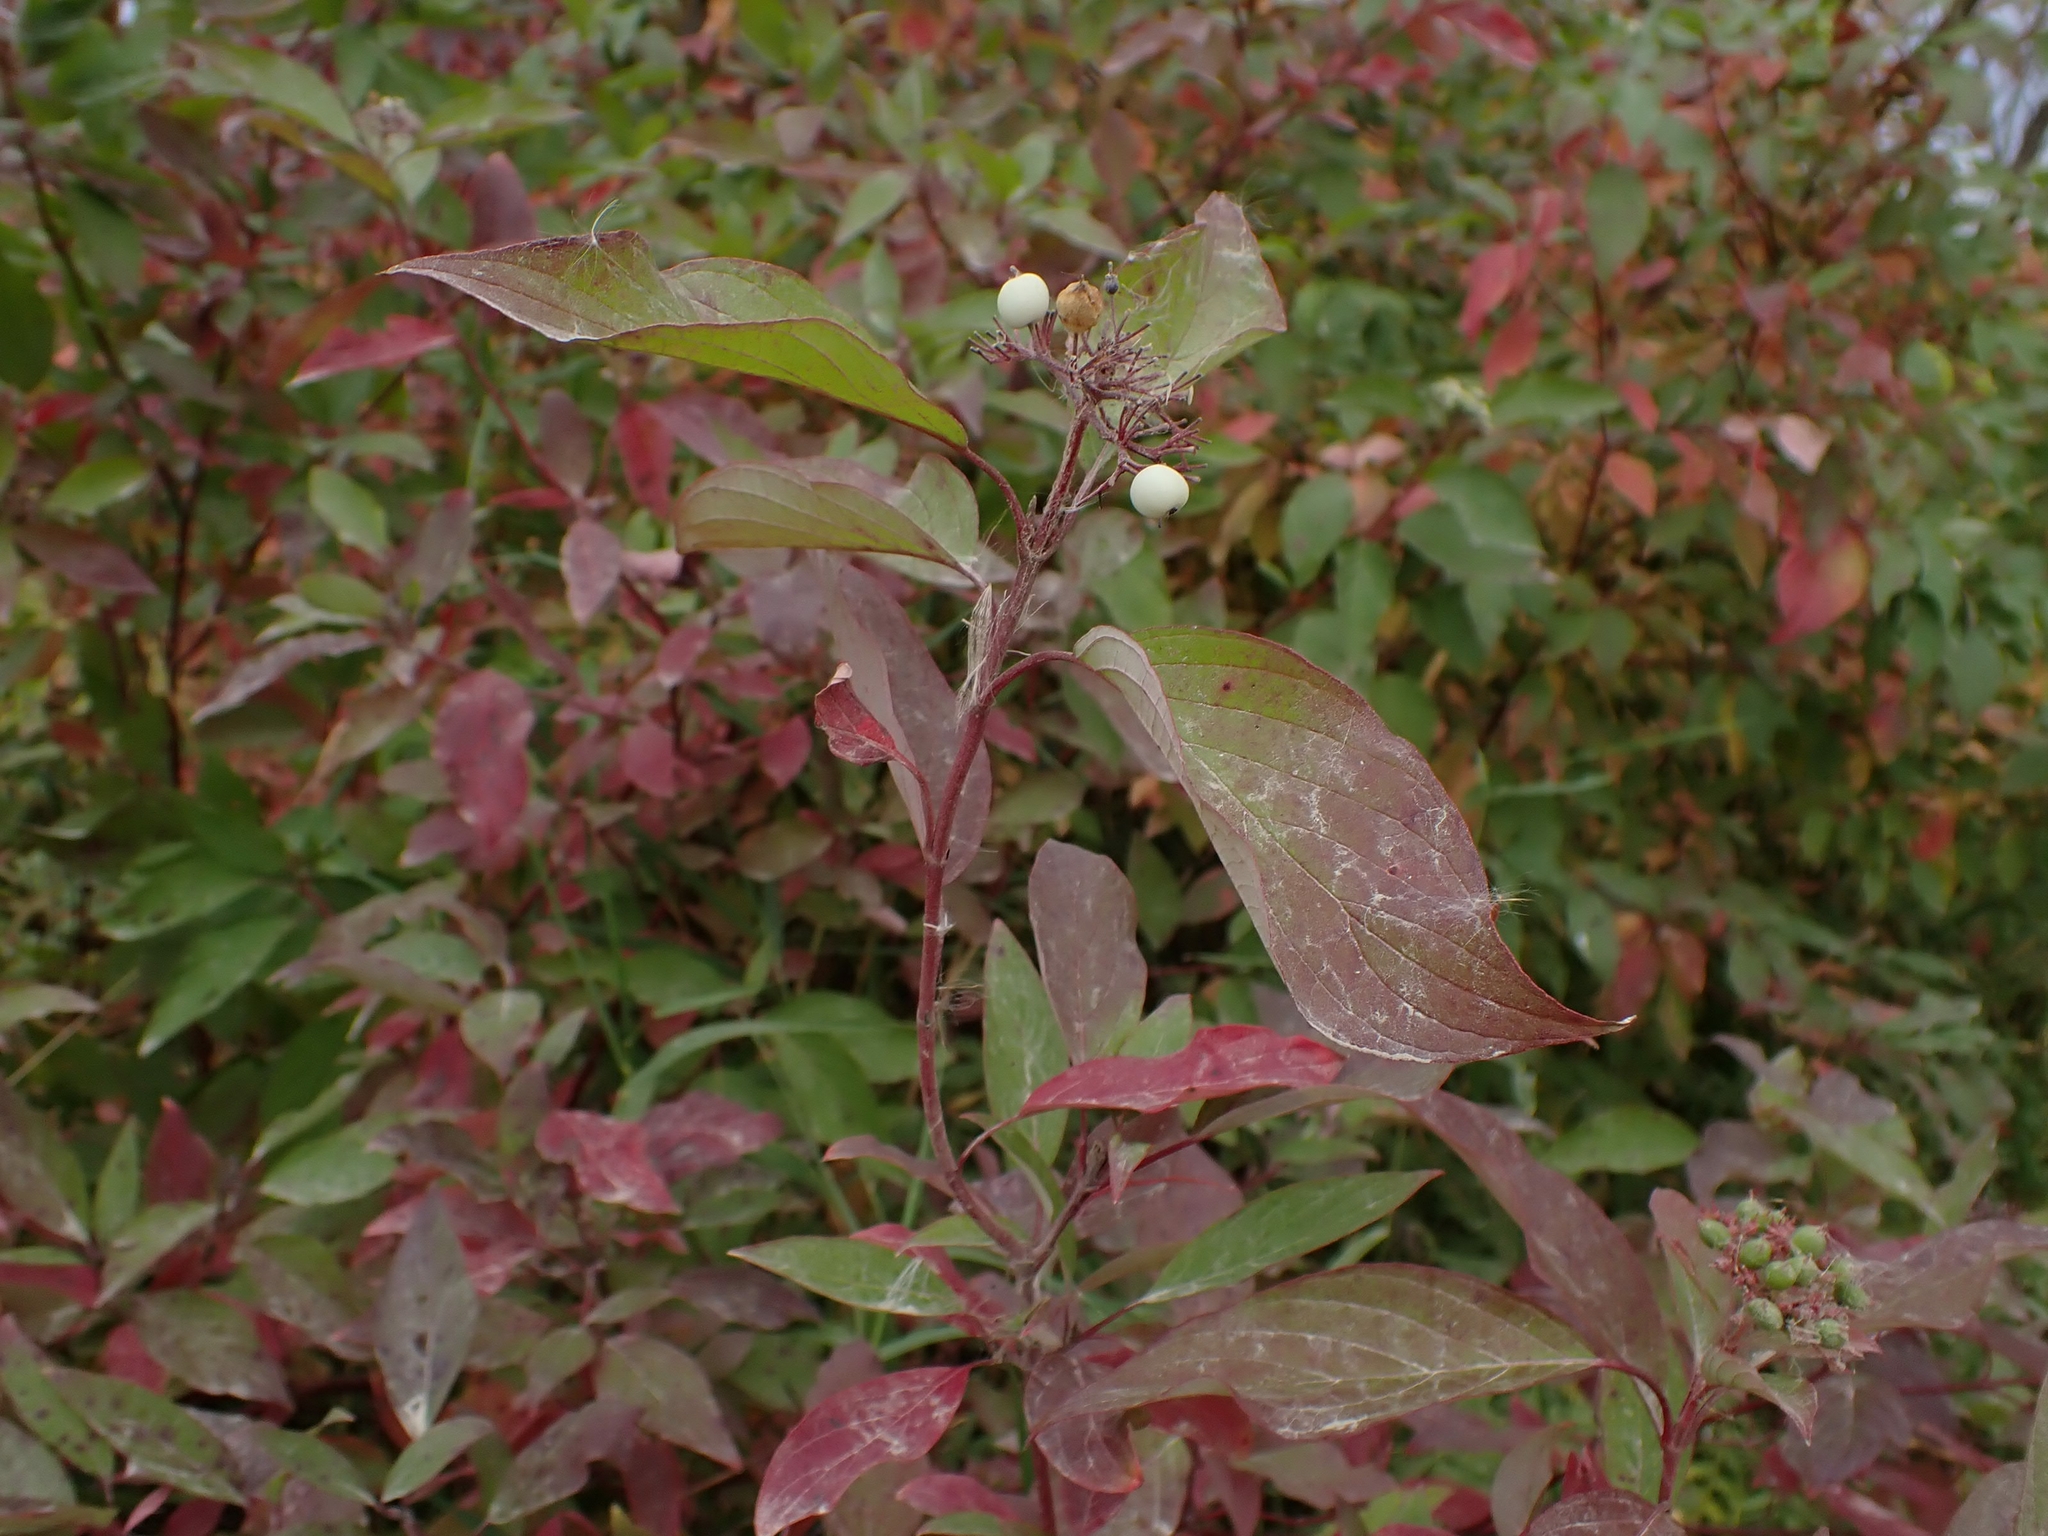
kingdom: Plantae
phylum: Tracheophyta
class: Magnoliopsida
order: Cornales
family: Cornaceae
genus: Cornus
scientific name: Cornus sericea
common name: Red-osier dogwood
